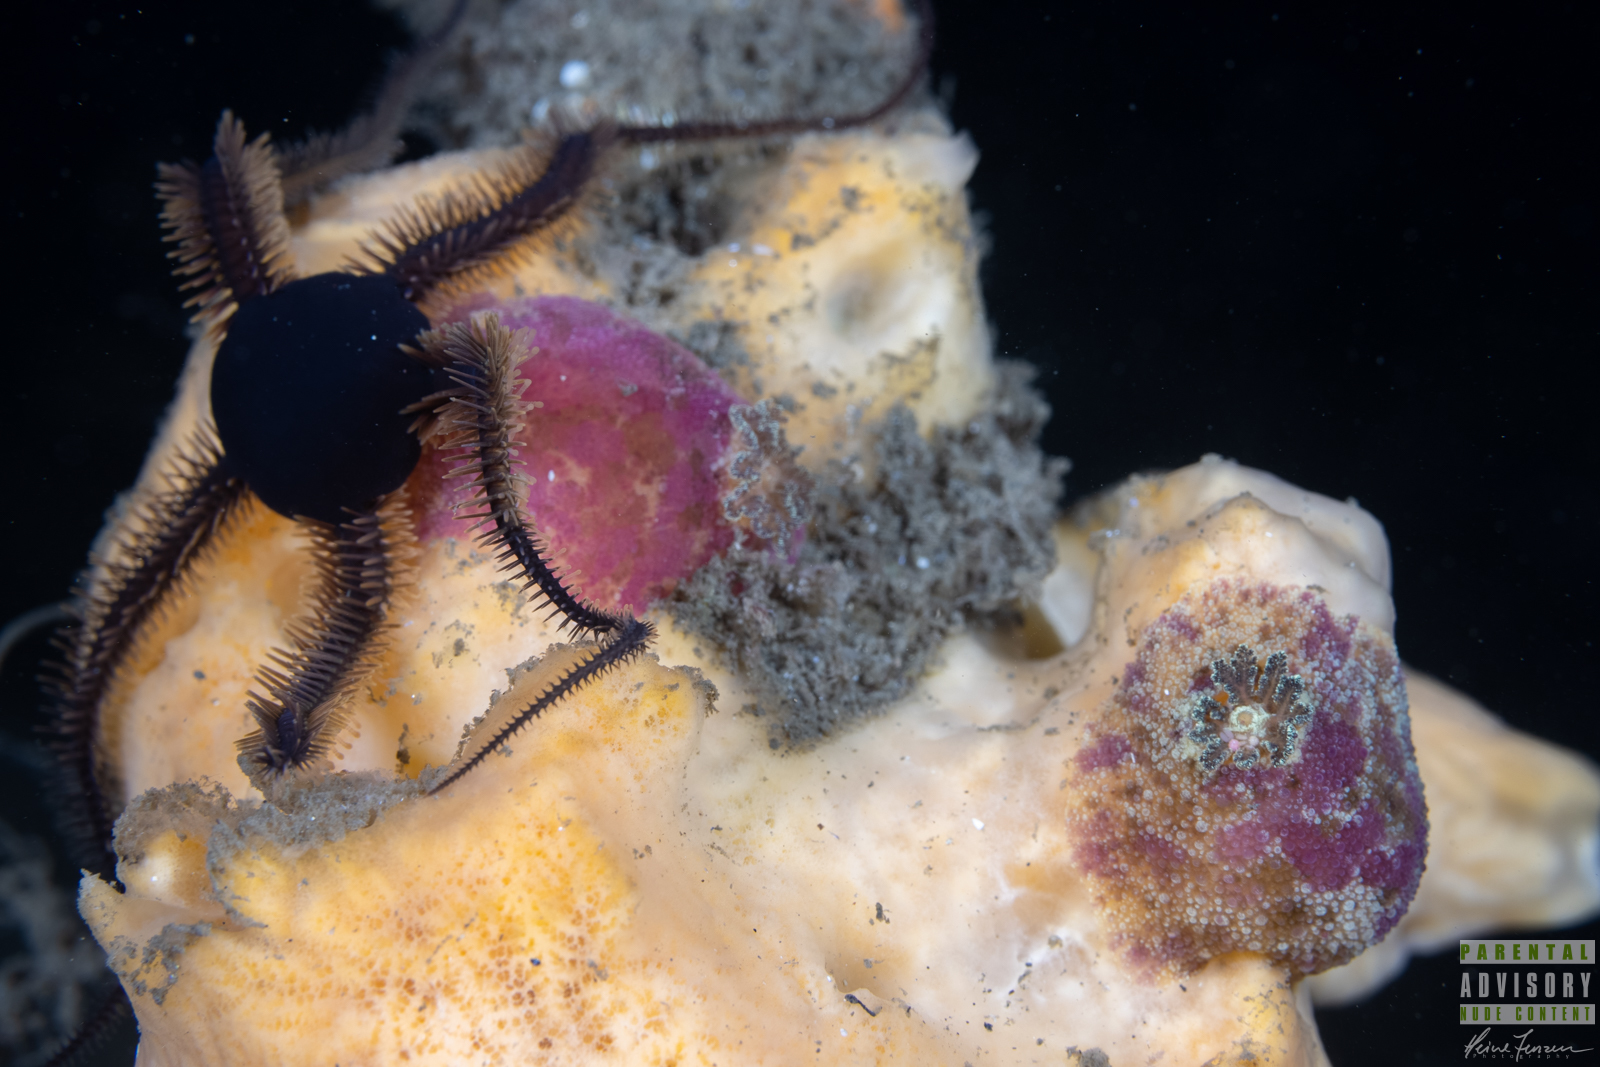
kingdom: Animalia
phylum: Mollusca
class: Gastropoda
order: Nudibranchia
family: Dorididae
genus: Doris
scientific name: Doris pseudoargus
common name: Sea lemon
